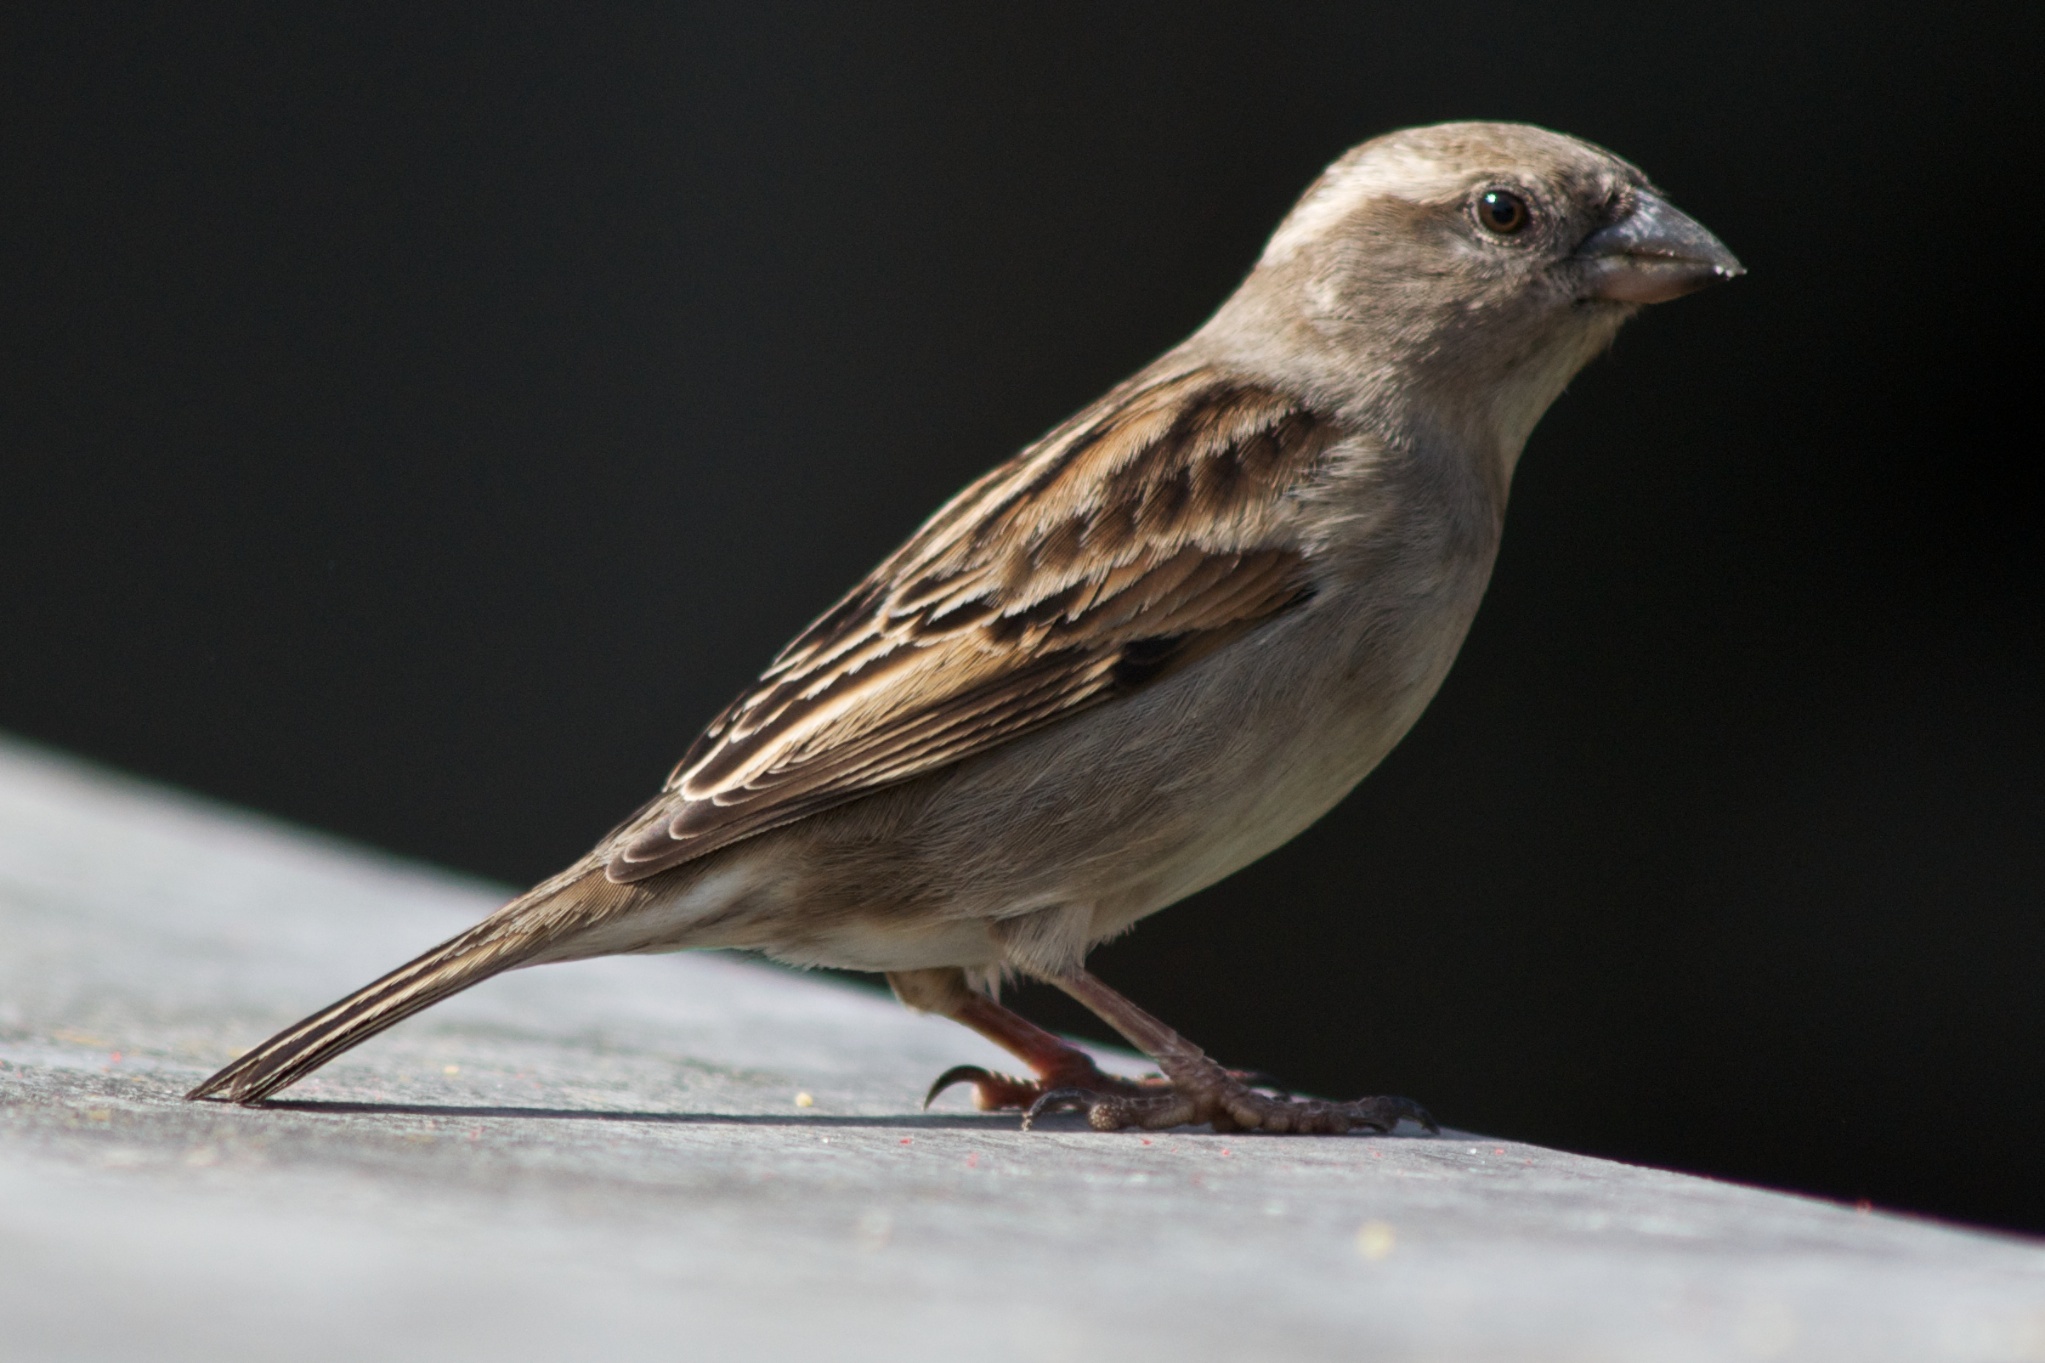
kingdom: Animalia
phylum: Chordata
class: Aves
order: Passeriformes
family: Passeridae
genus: Passer
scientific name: Passer domesticus
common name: House sparrow
